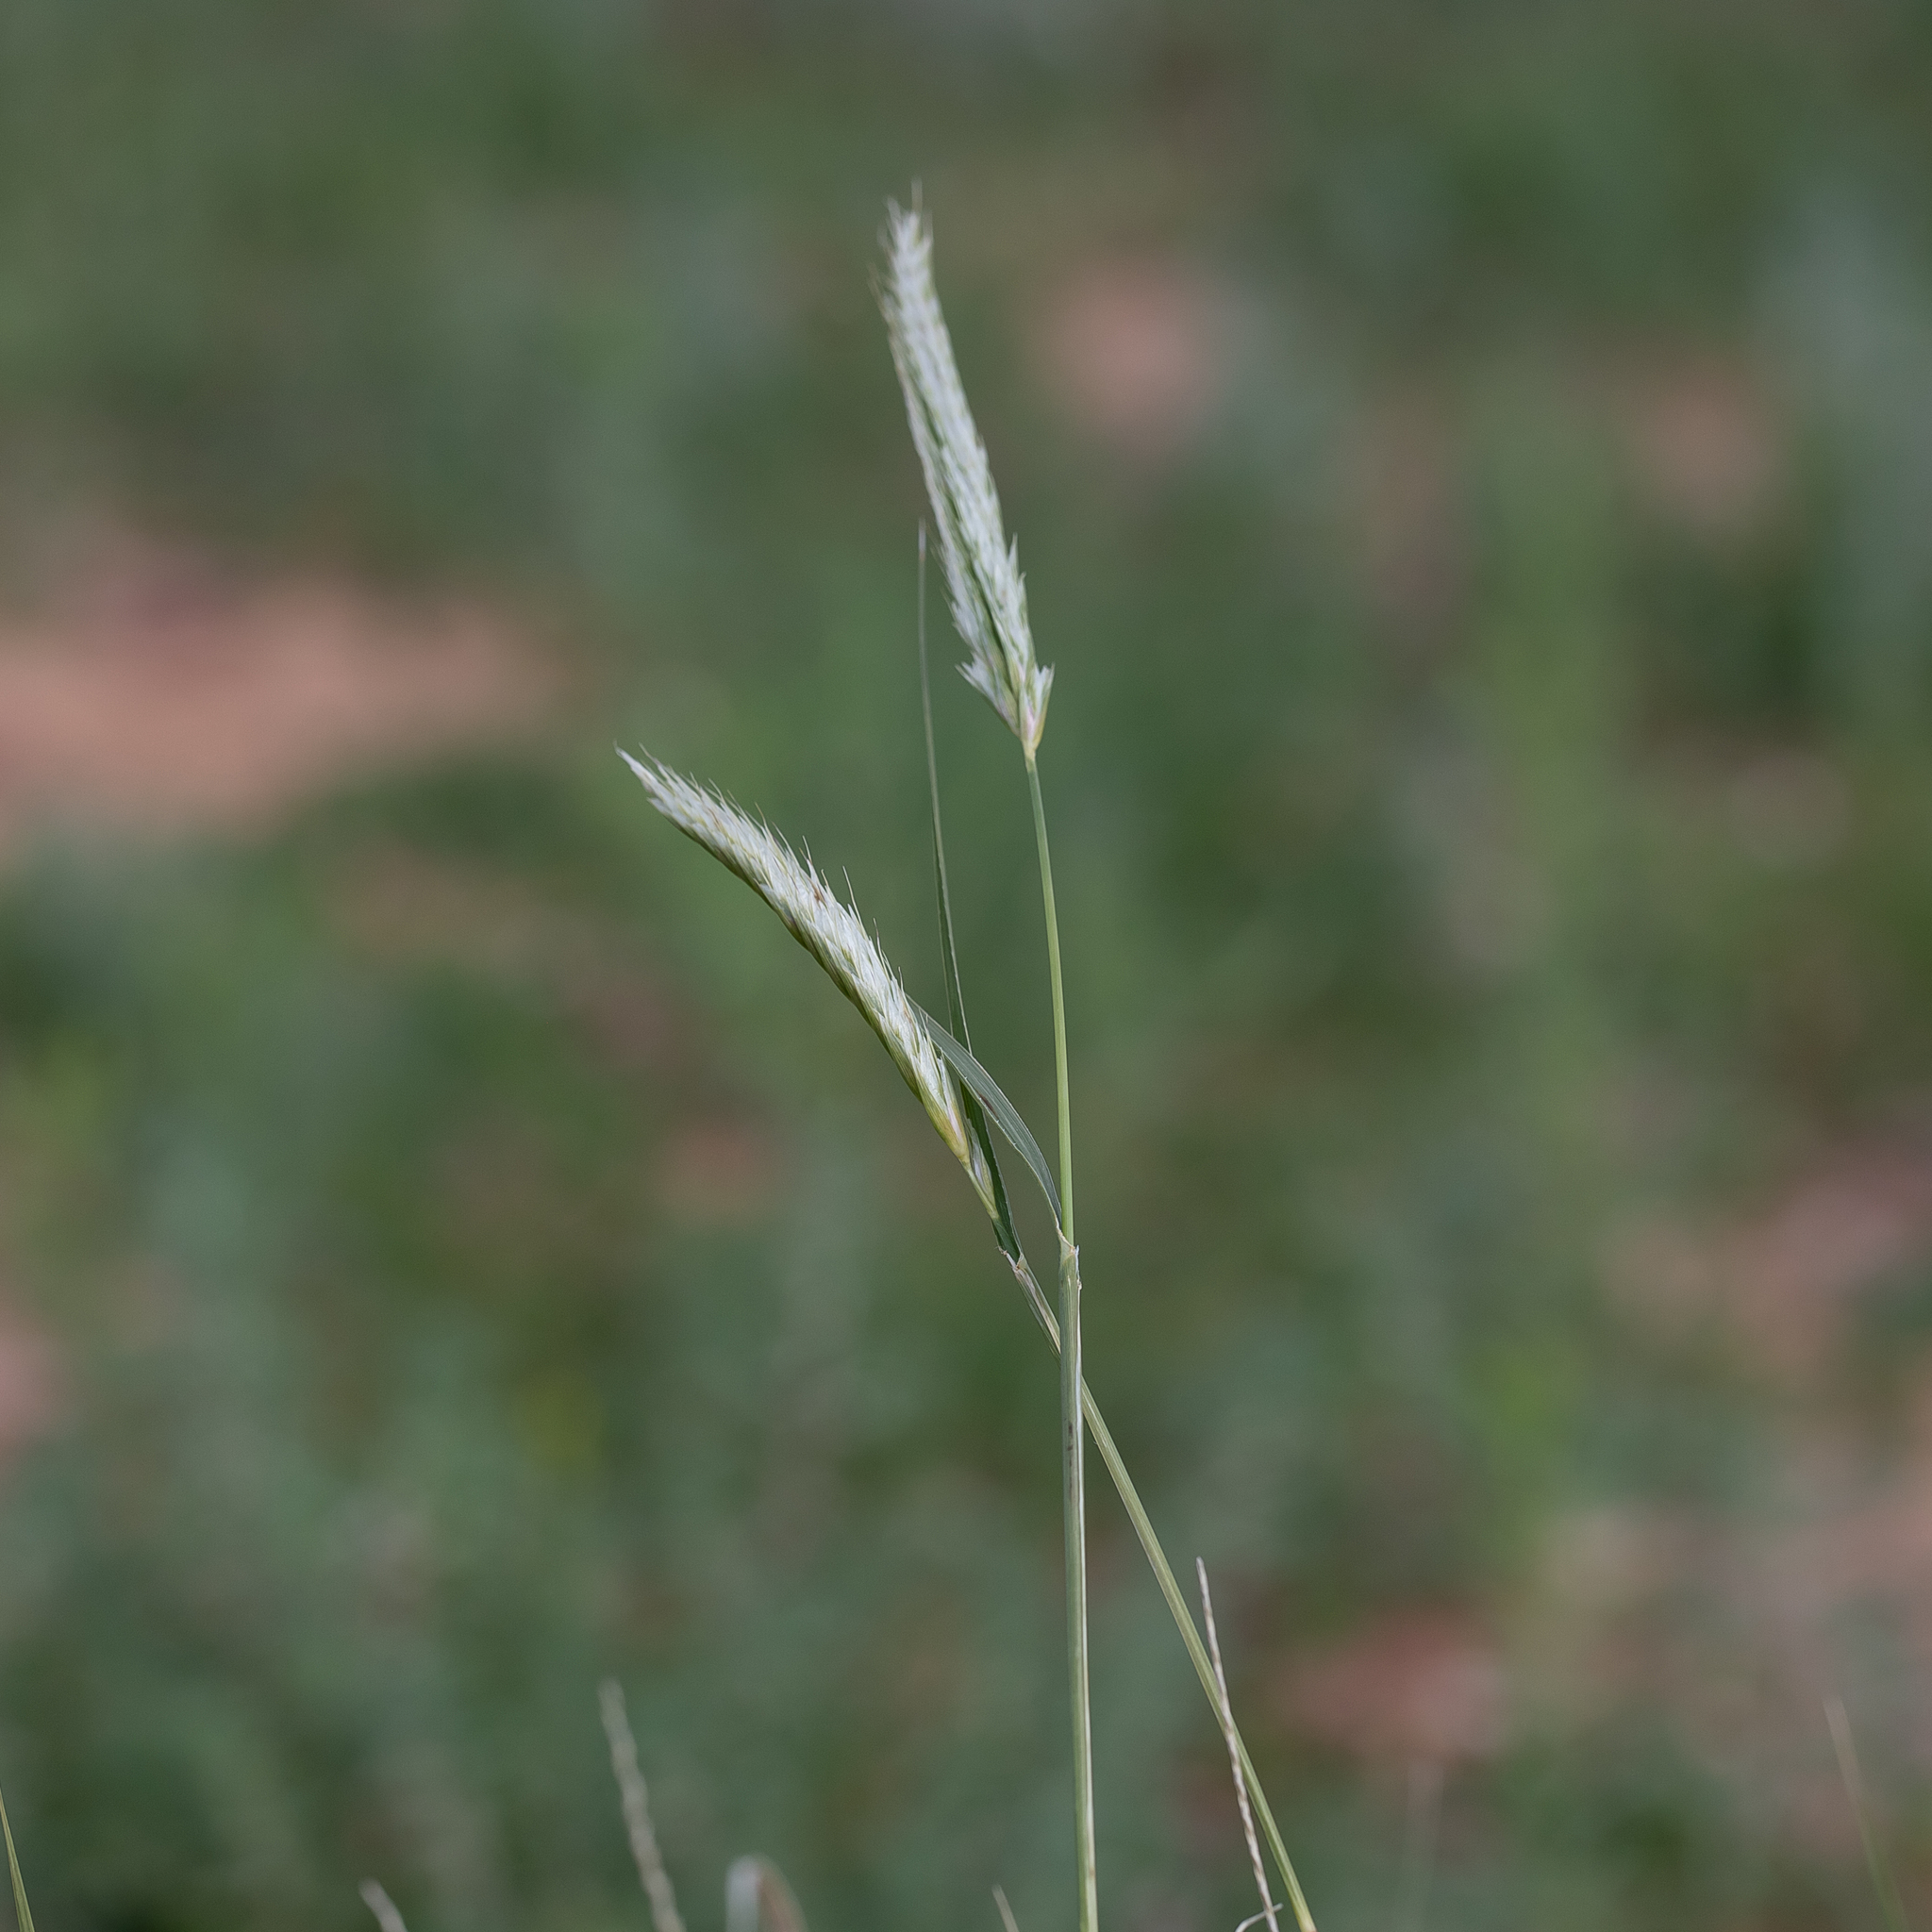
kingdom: Plantae
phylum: Tracheophyta
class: Liliopsida
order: Poales
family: Poaceae
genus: Astrebla
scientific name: Astrebla pectinata
